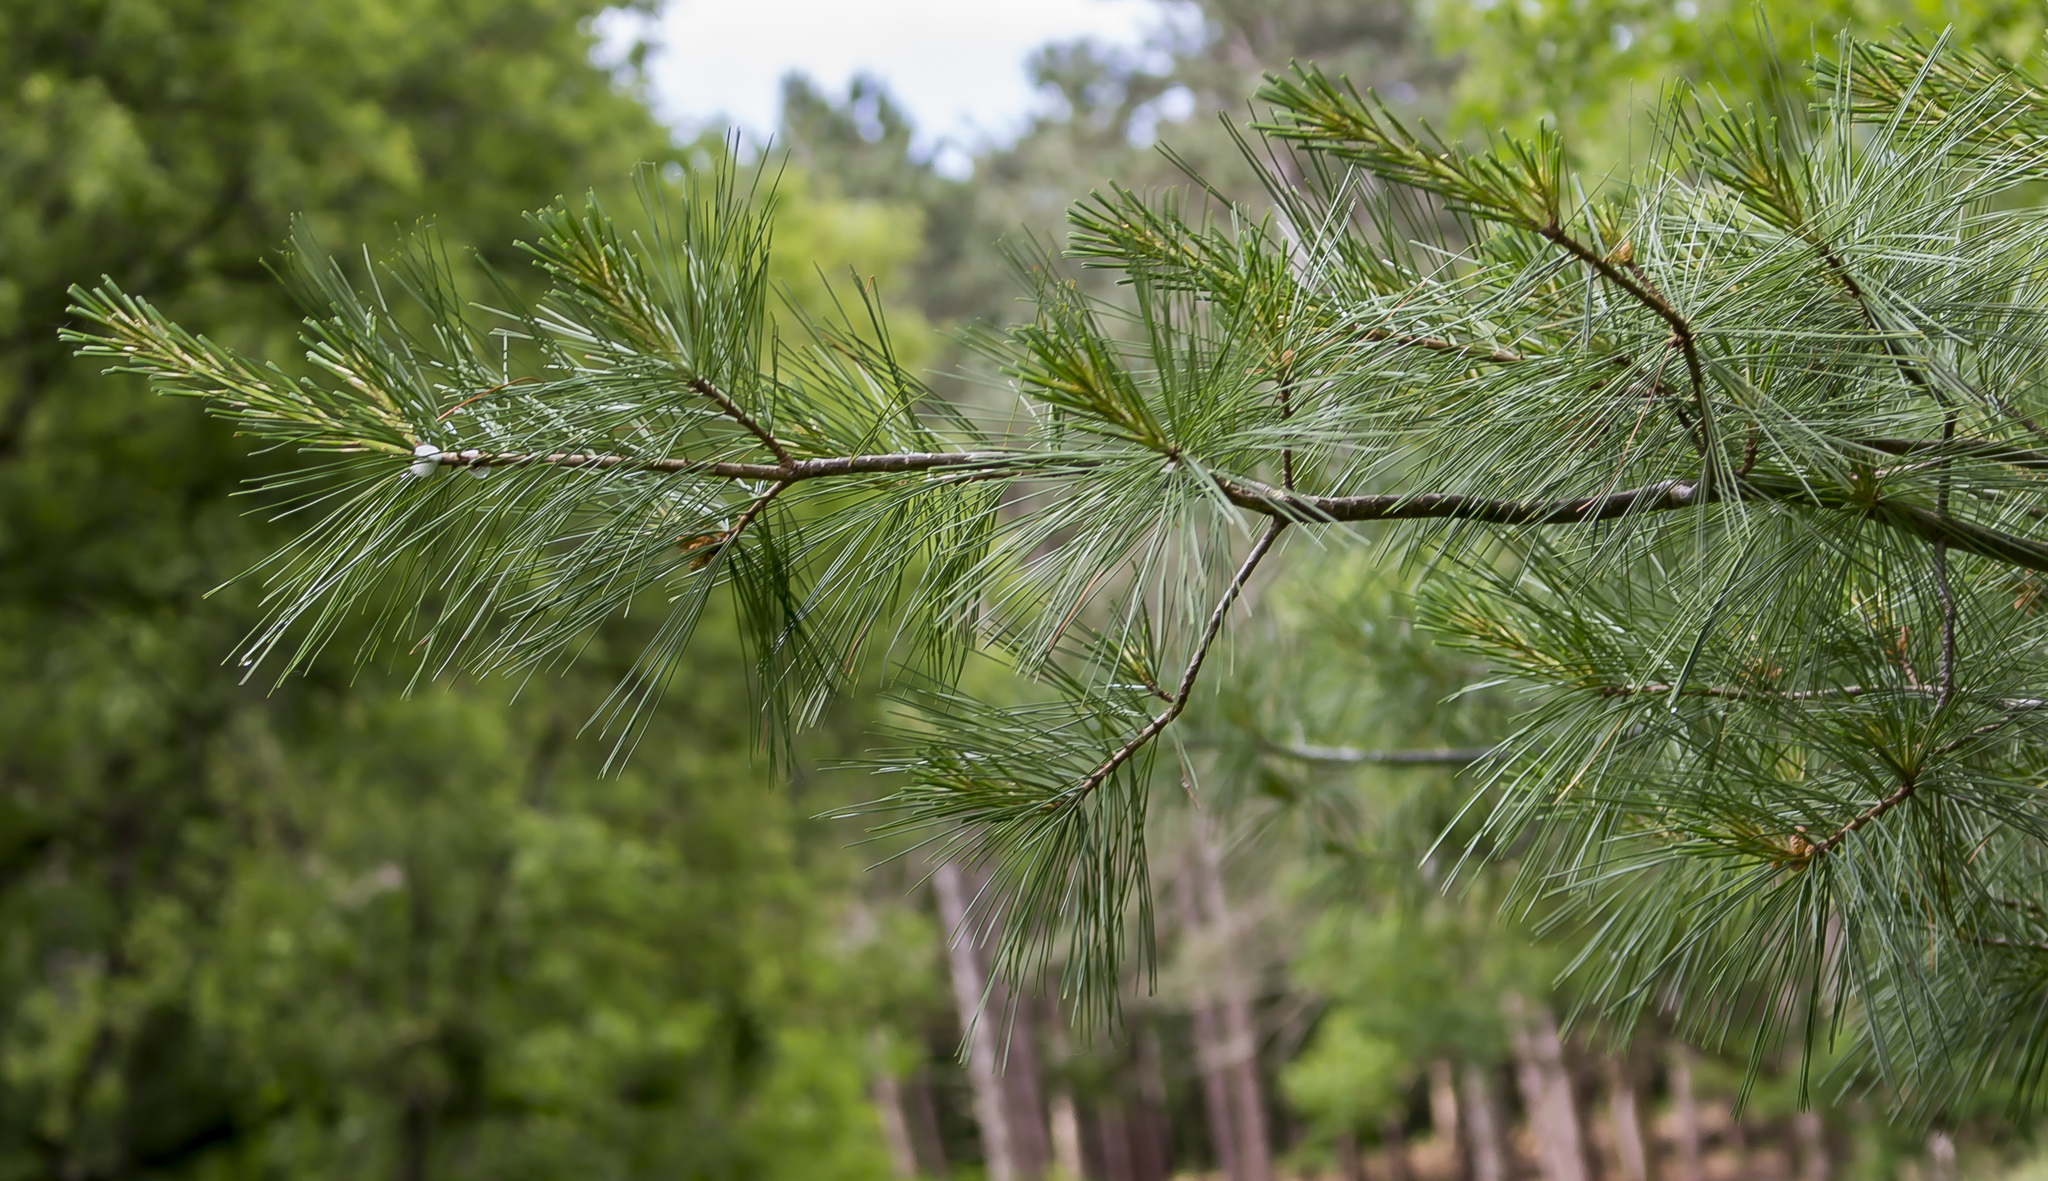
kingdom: Plantae
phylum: Tracheophyta
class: Pinopsida
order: Pinales
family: Pinaceae
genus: Pinus
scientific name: Pinus strobus
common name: Weymouth pine
